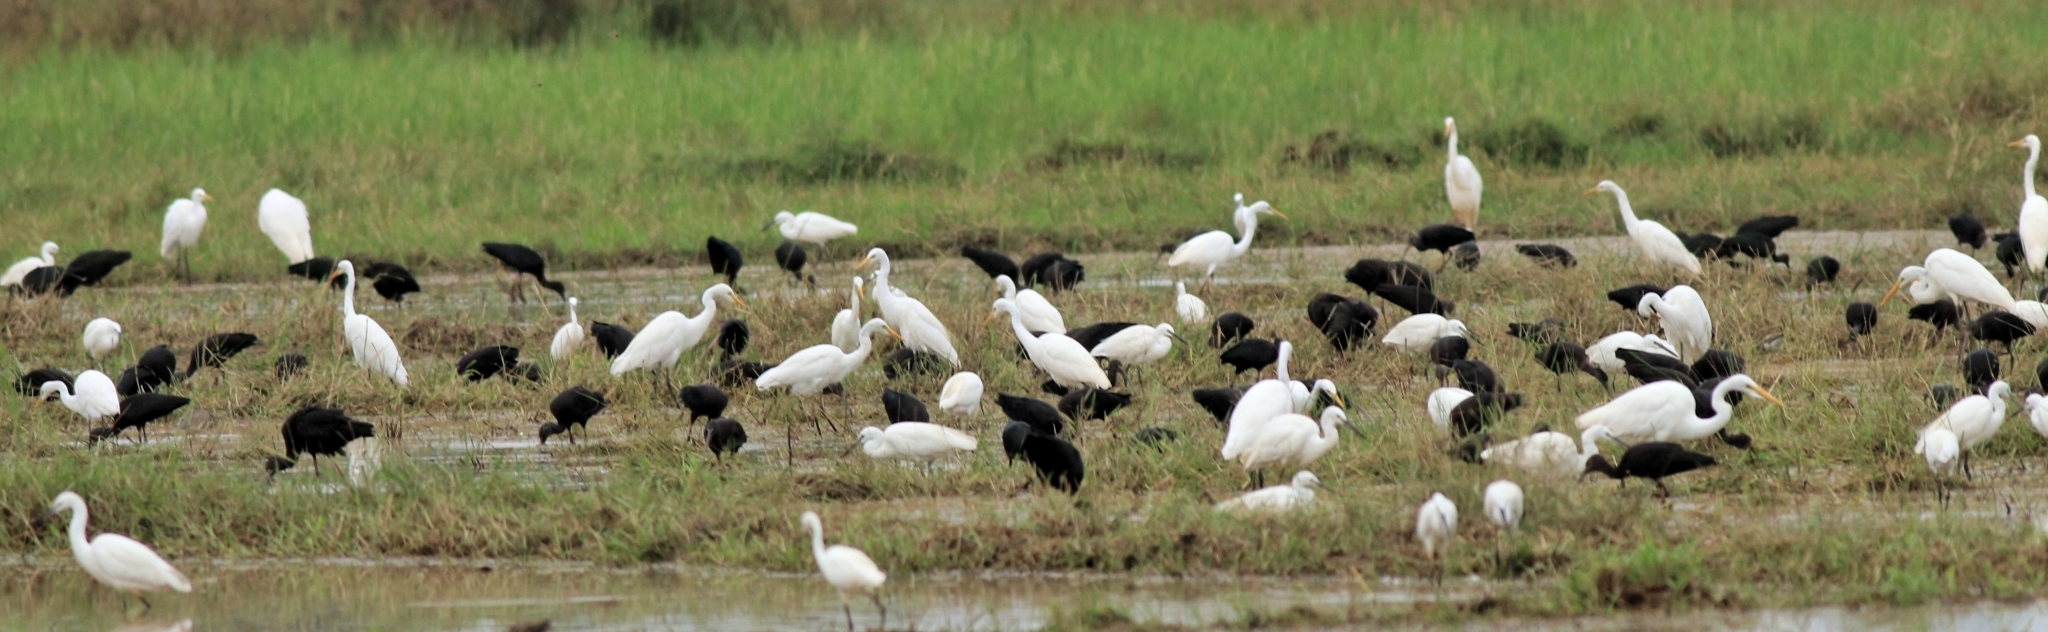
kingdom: Animalia
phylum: Chordata
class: Aves
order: Pelecaniformes
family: Ardeidae
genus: Ardea
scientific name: Ardea alba
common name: Great egret
